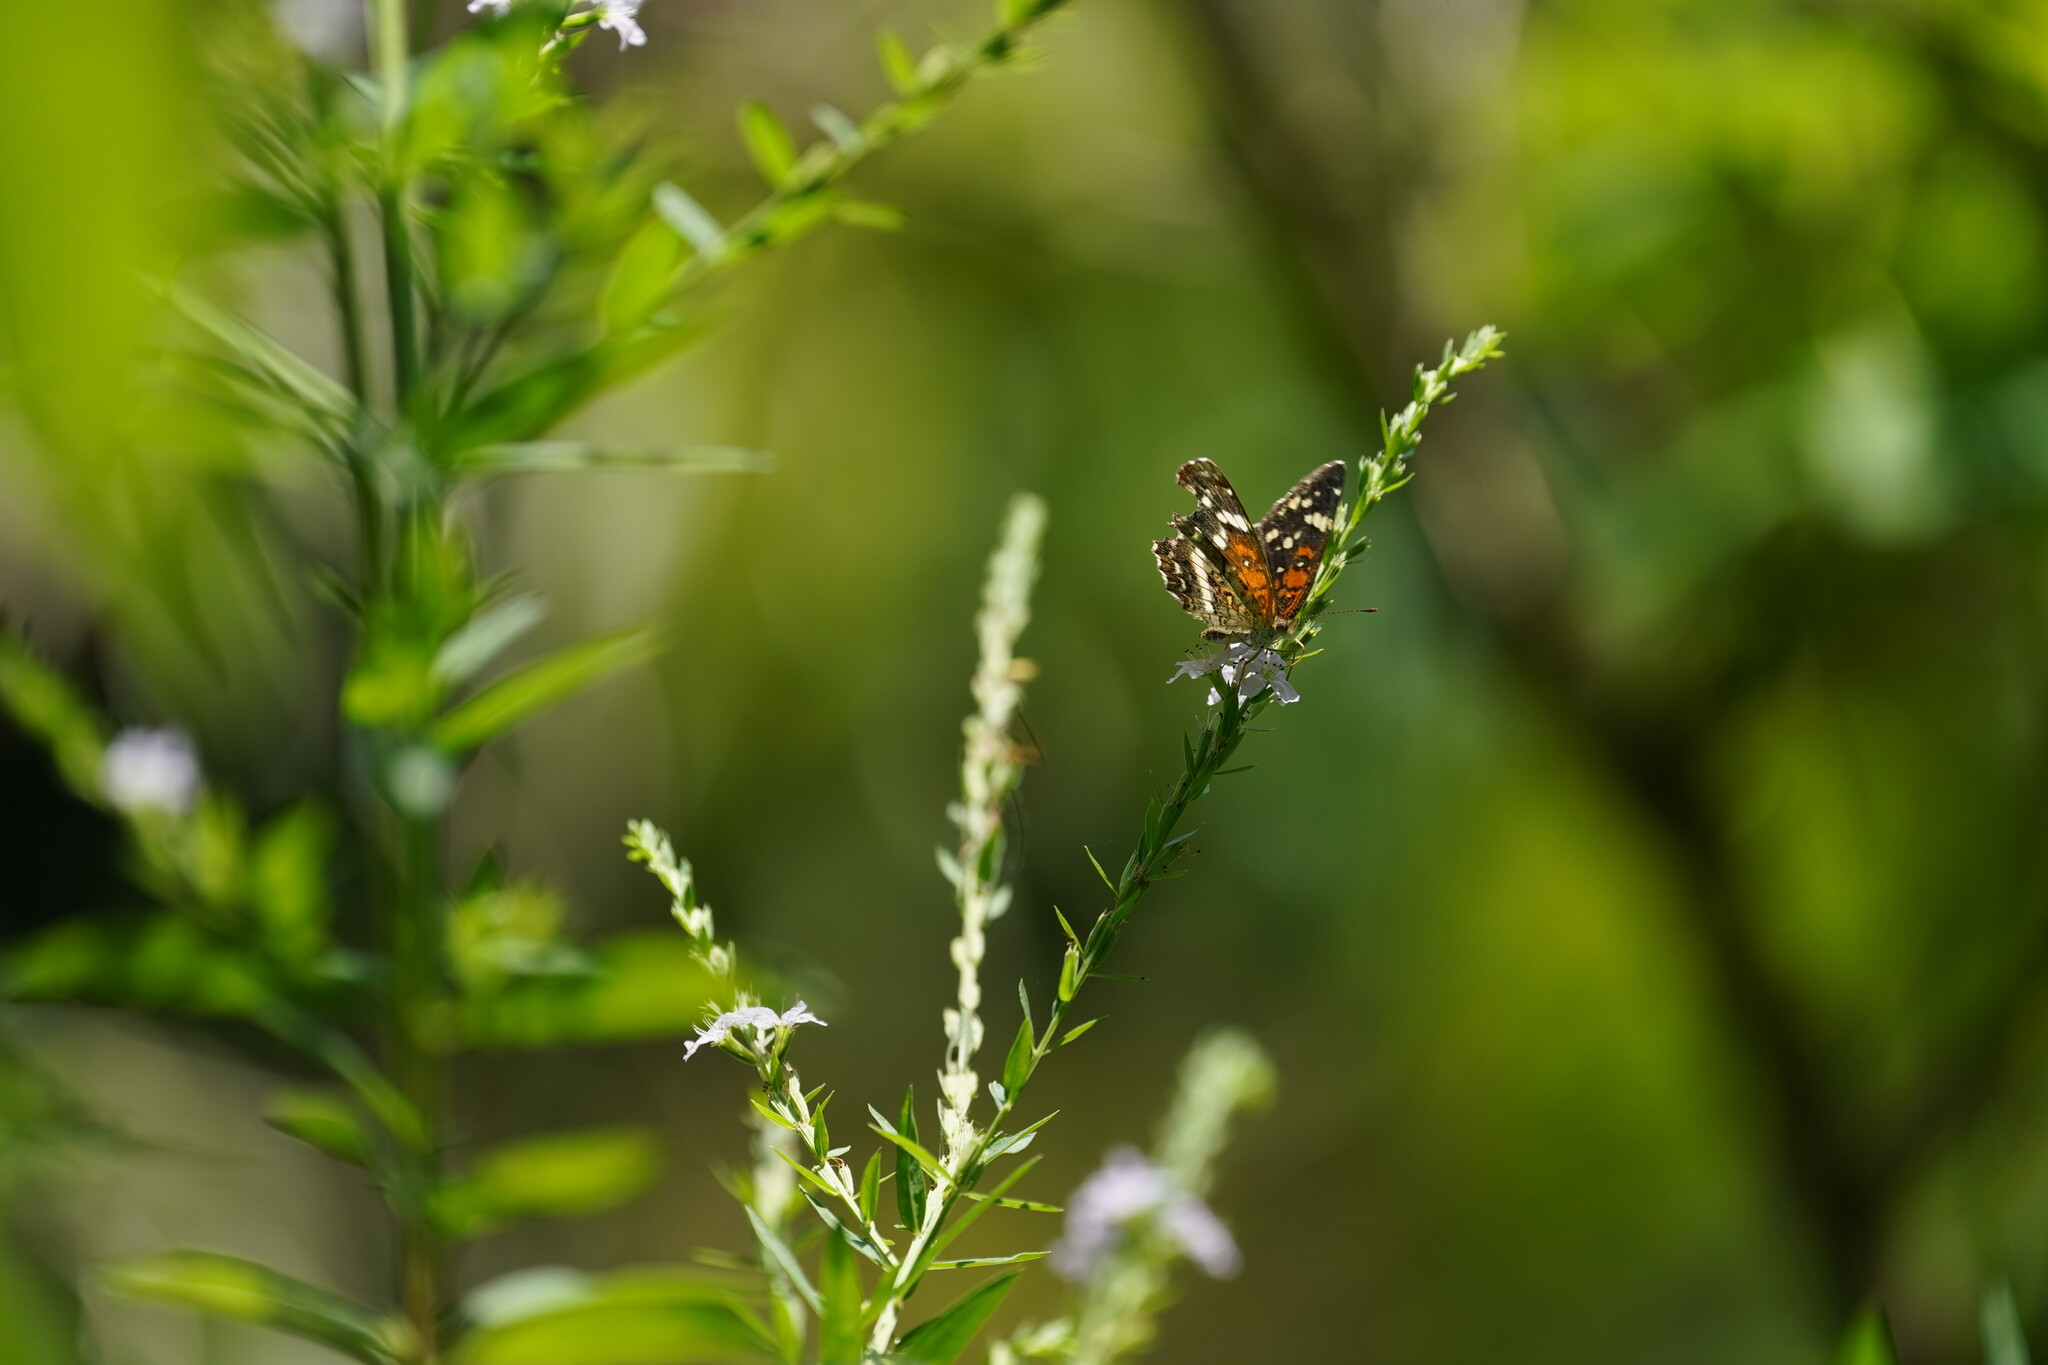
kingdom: Animalia
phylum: Arthropoda
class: Insecta
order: Lepidoptera
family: Nymphalidae
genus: Anthanassa
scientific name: Anthanassa taxana
